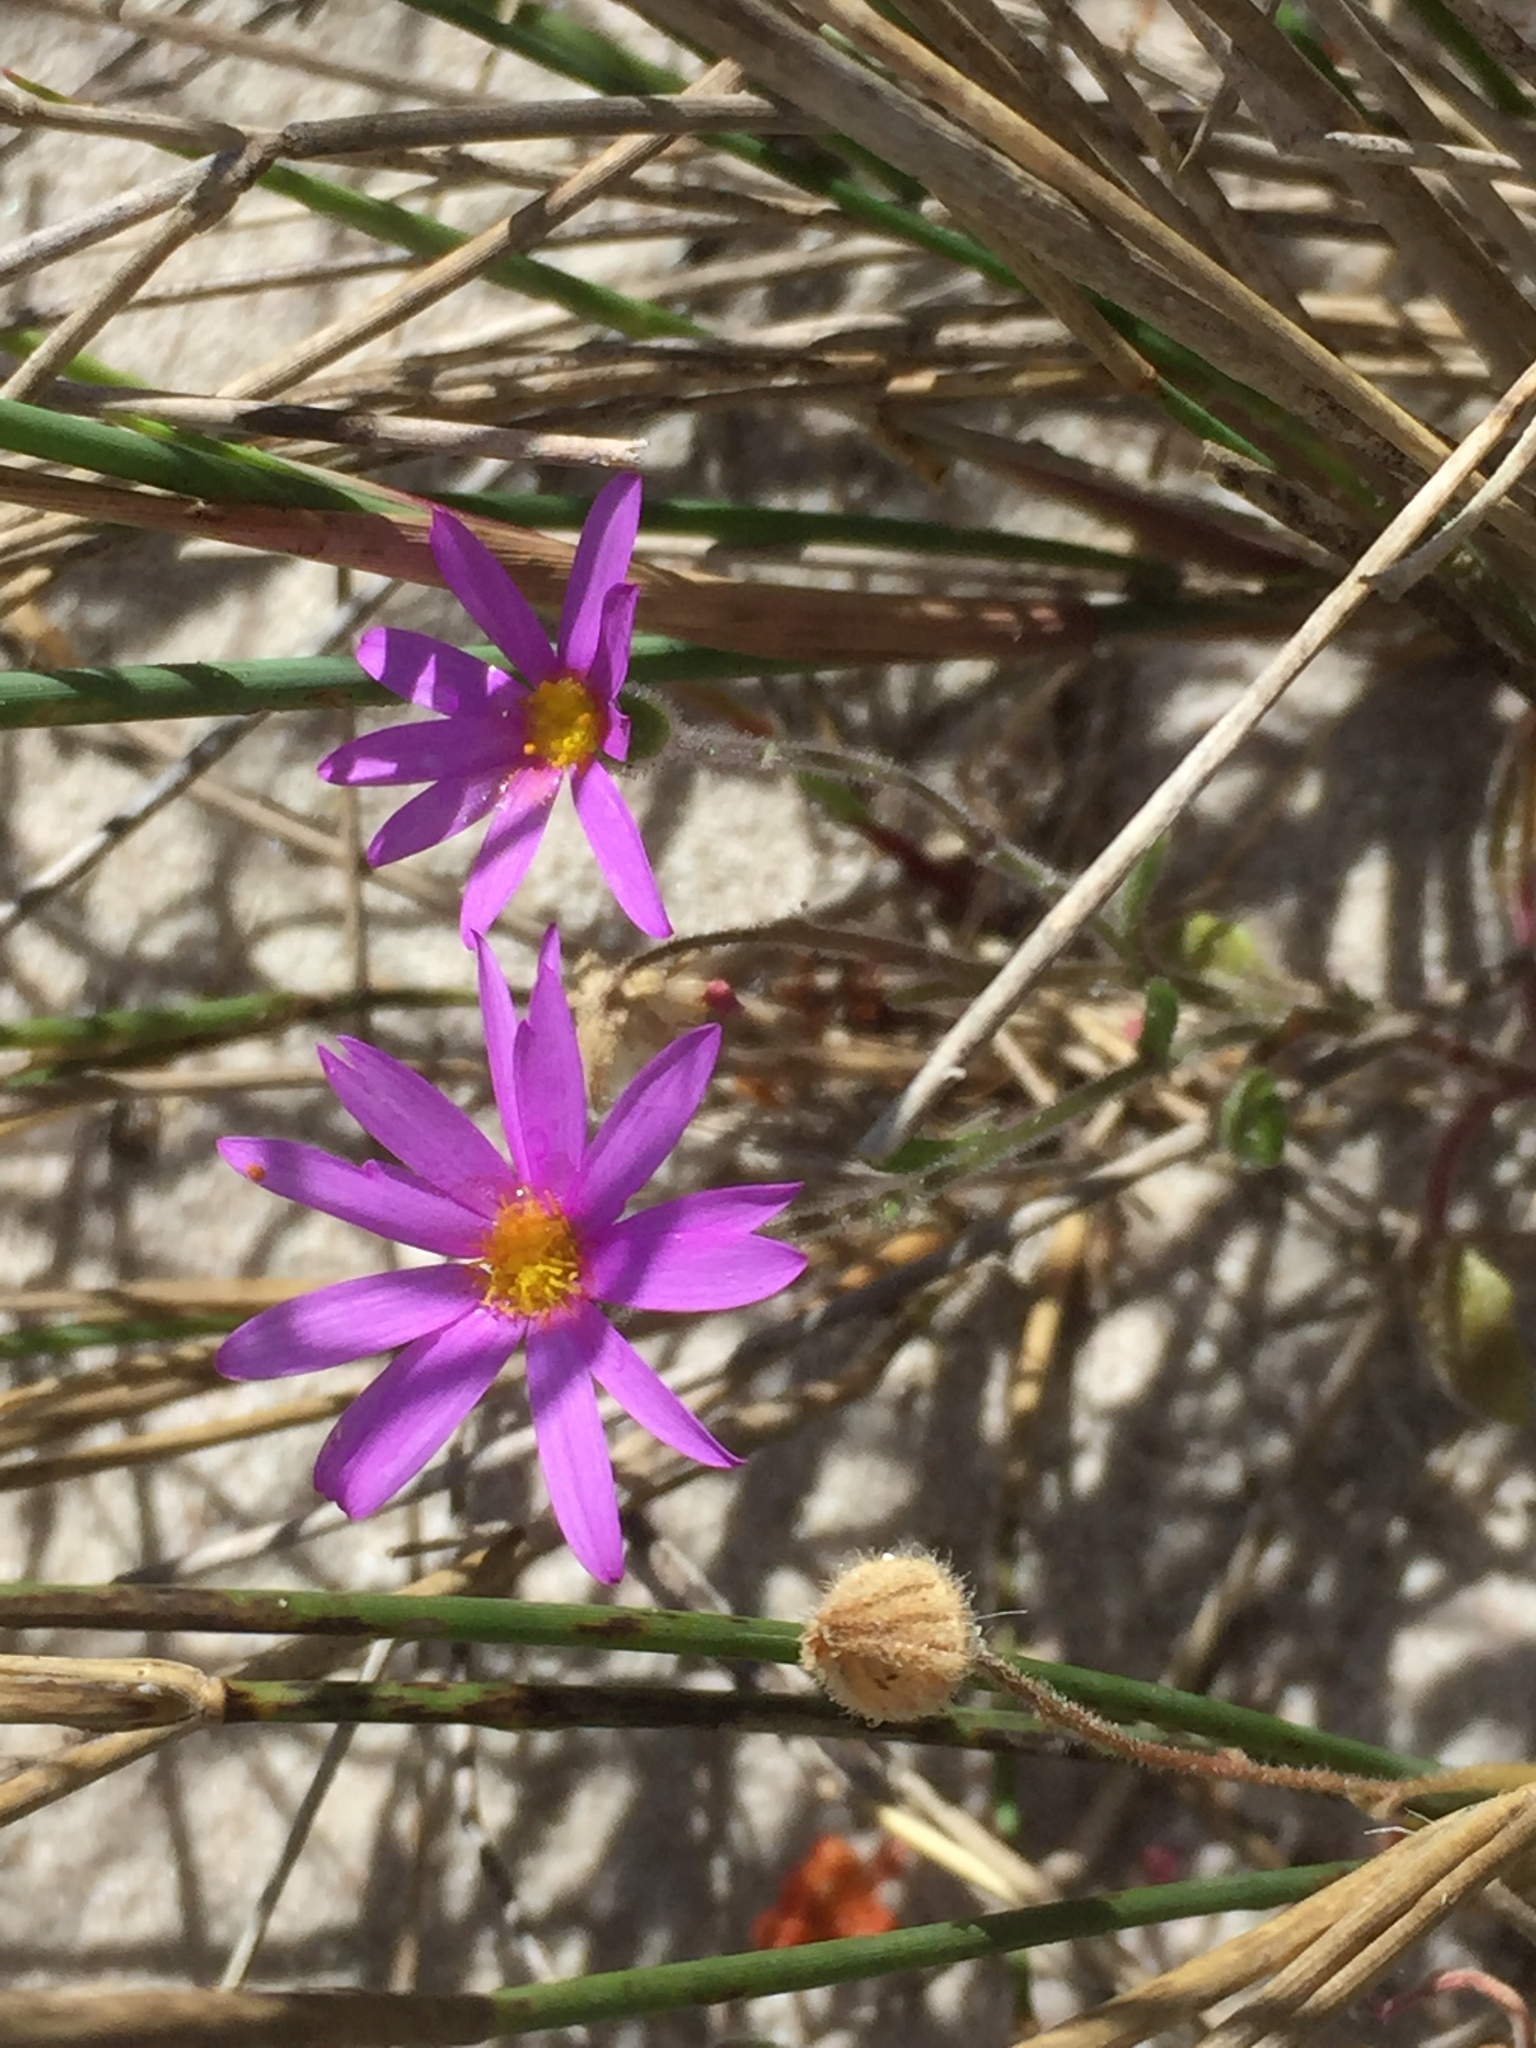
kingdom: Plantae
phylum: Tracheophyta
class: Magnoliopsida
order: Asterales
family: Asteraceae
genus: Senecio
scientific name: Senecio arenarius
